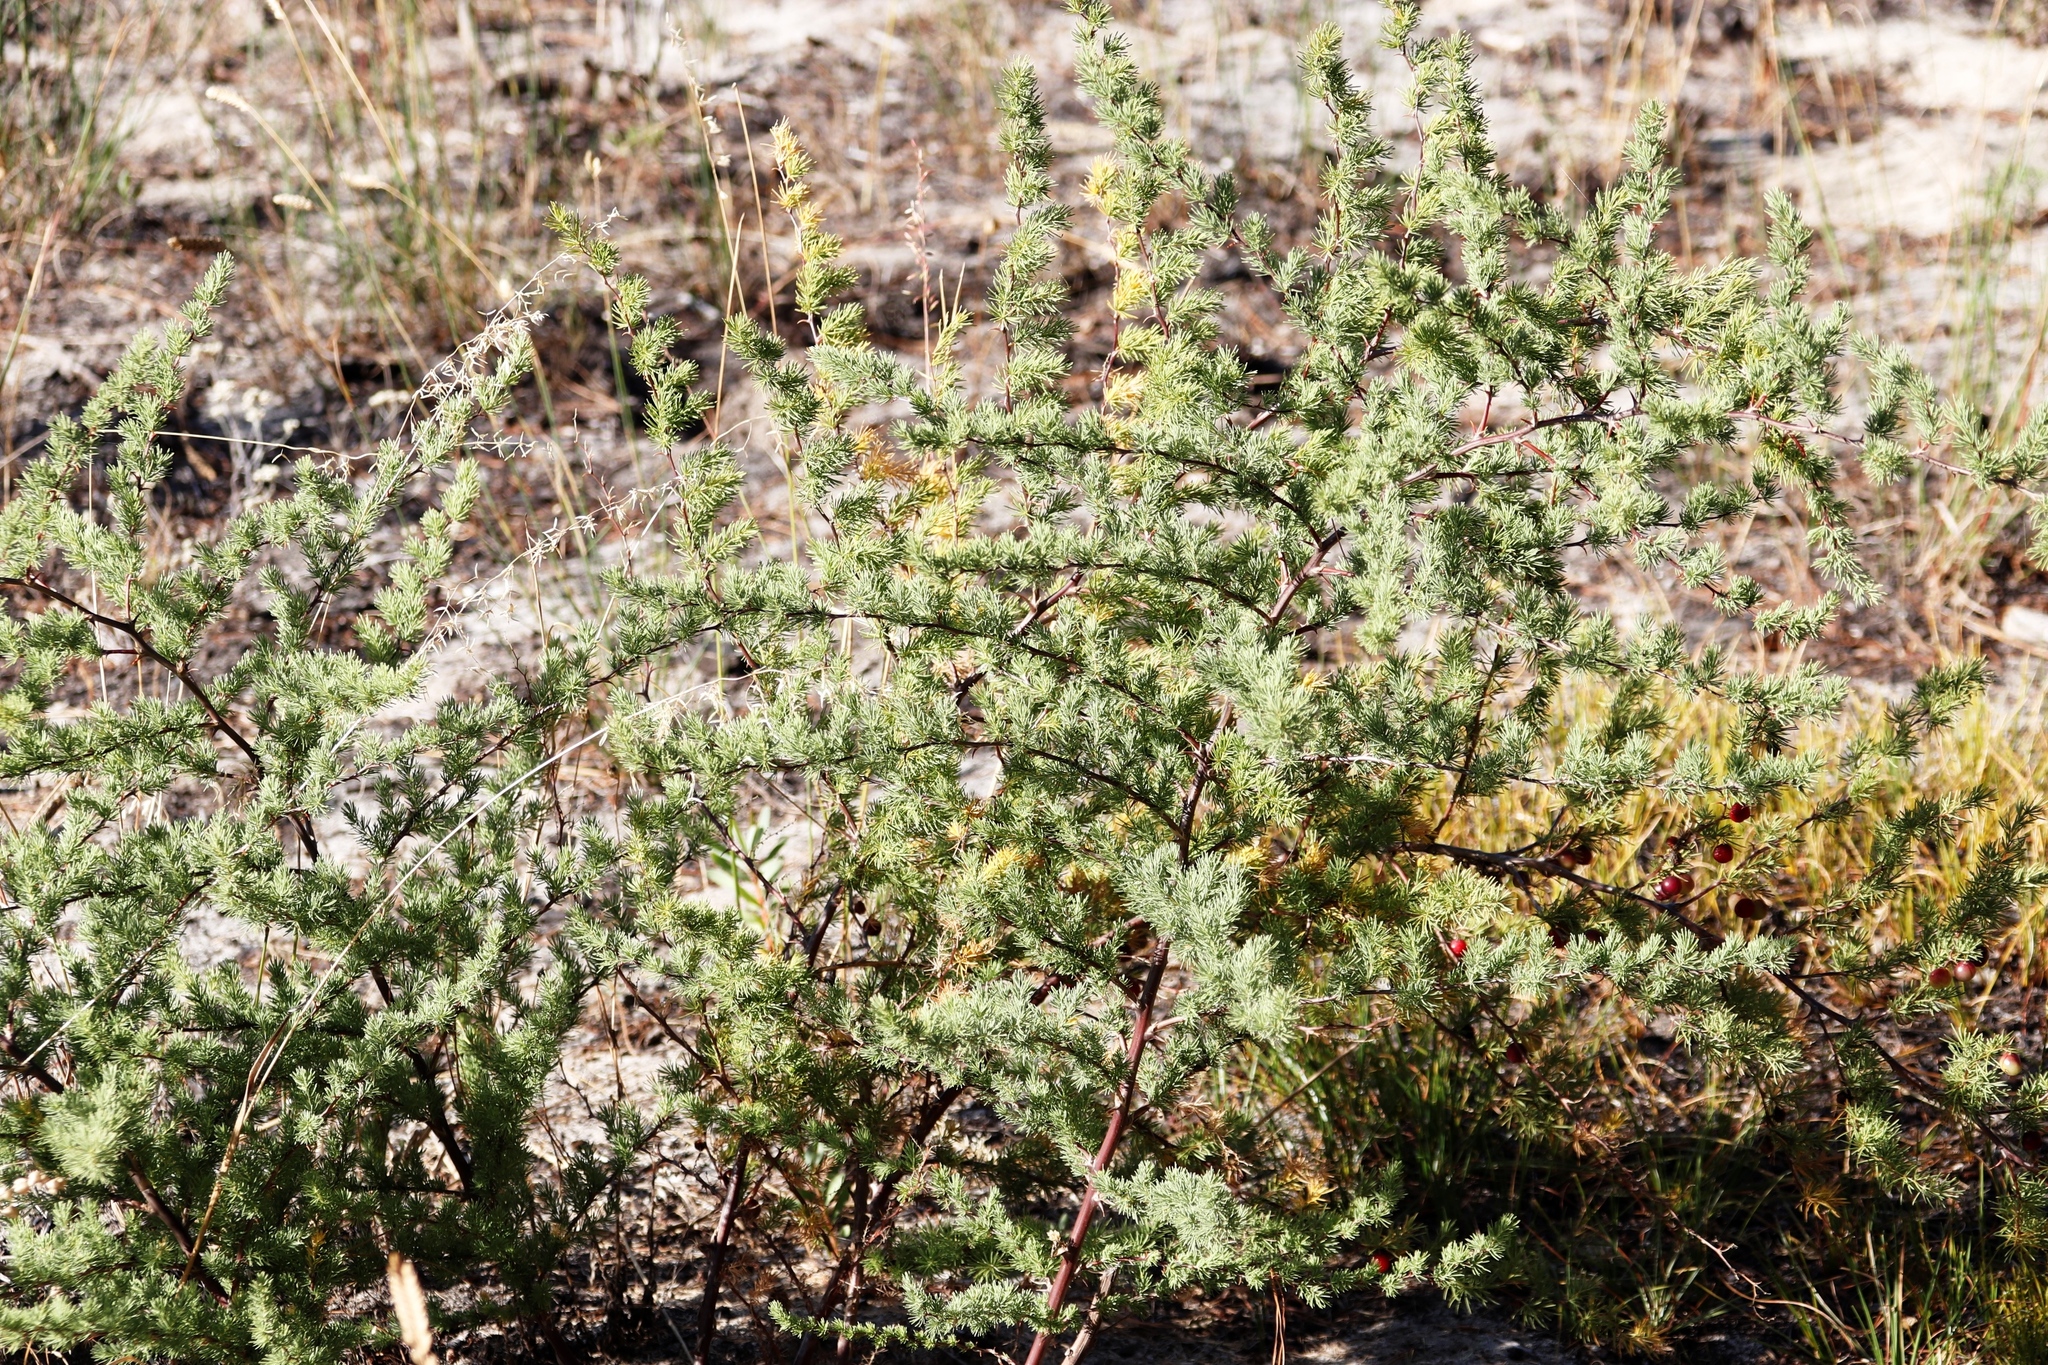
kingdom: Plantae
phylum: Tracheophyta
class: Liliopsida
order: Asparagales
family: Asparagaceae
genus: Asparagus
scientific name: Asparagus rubicundus
